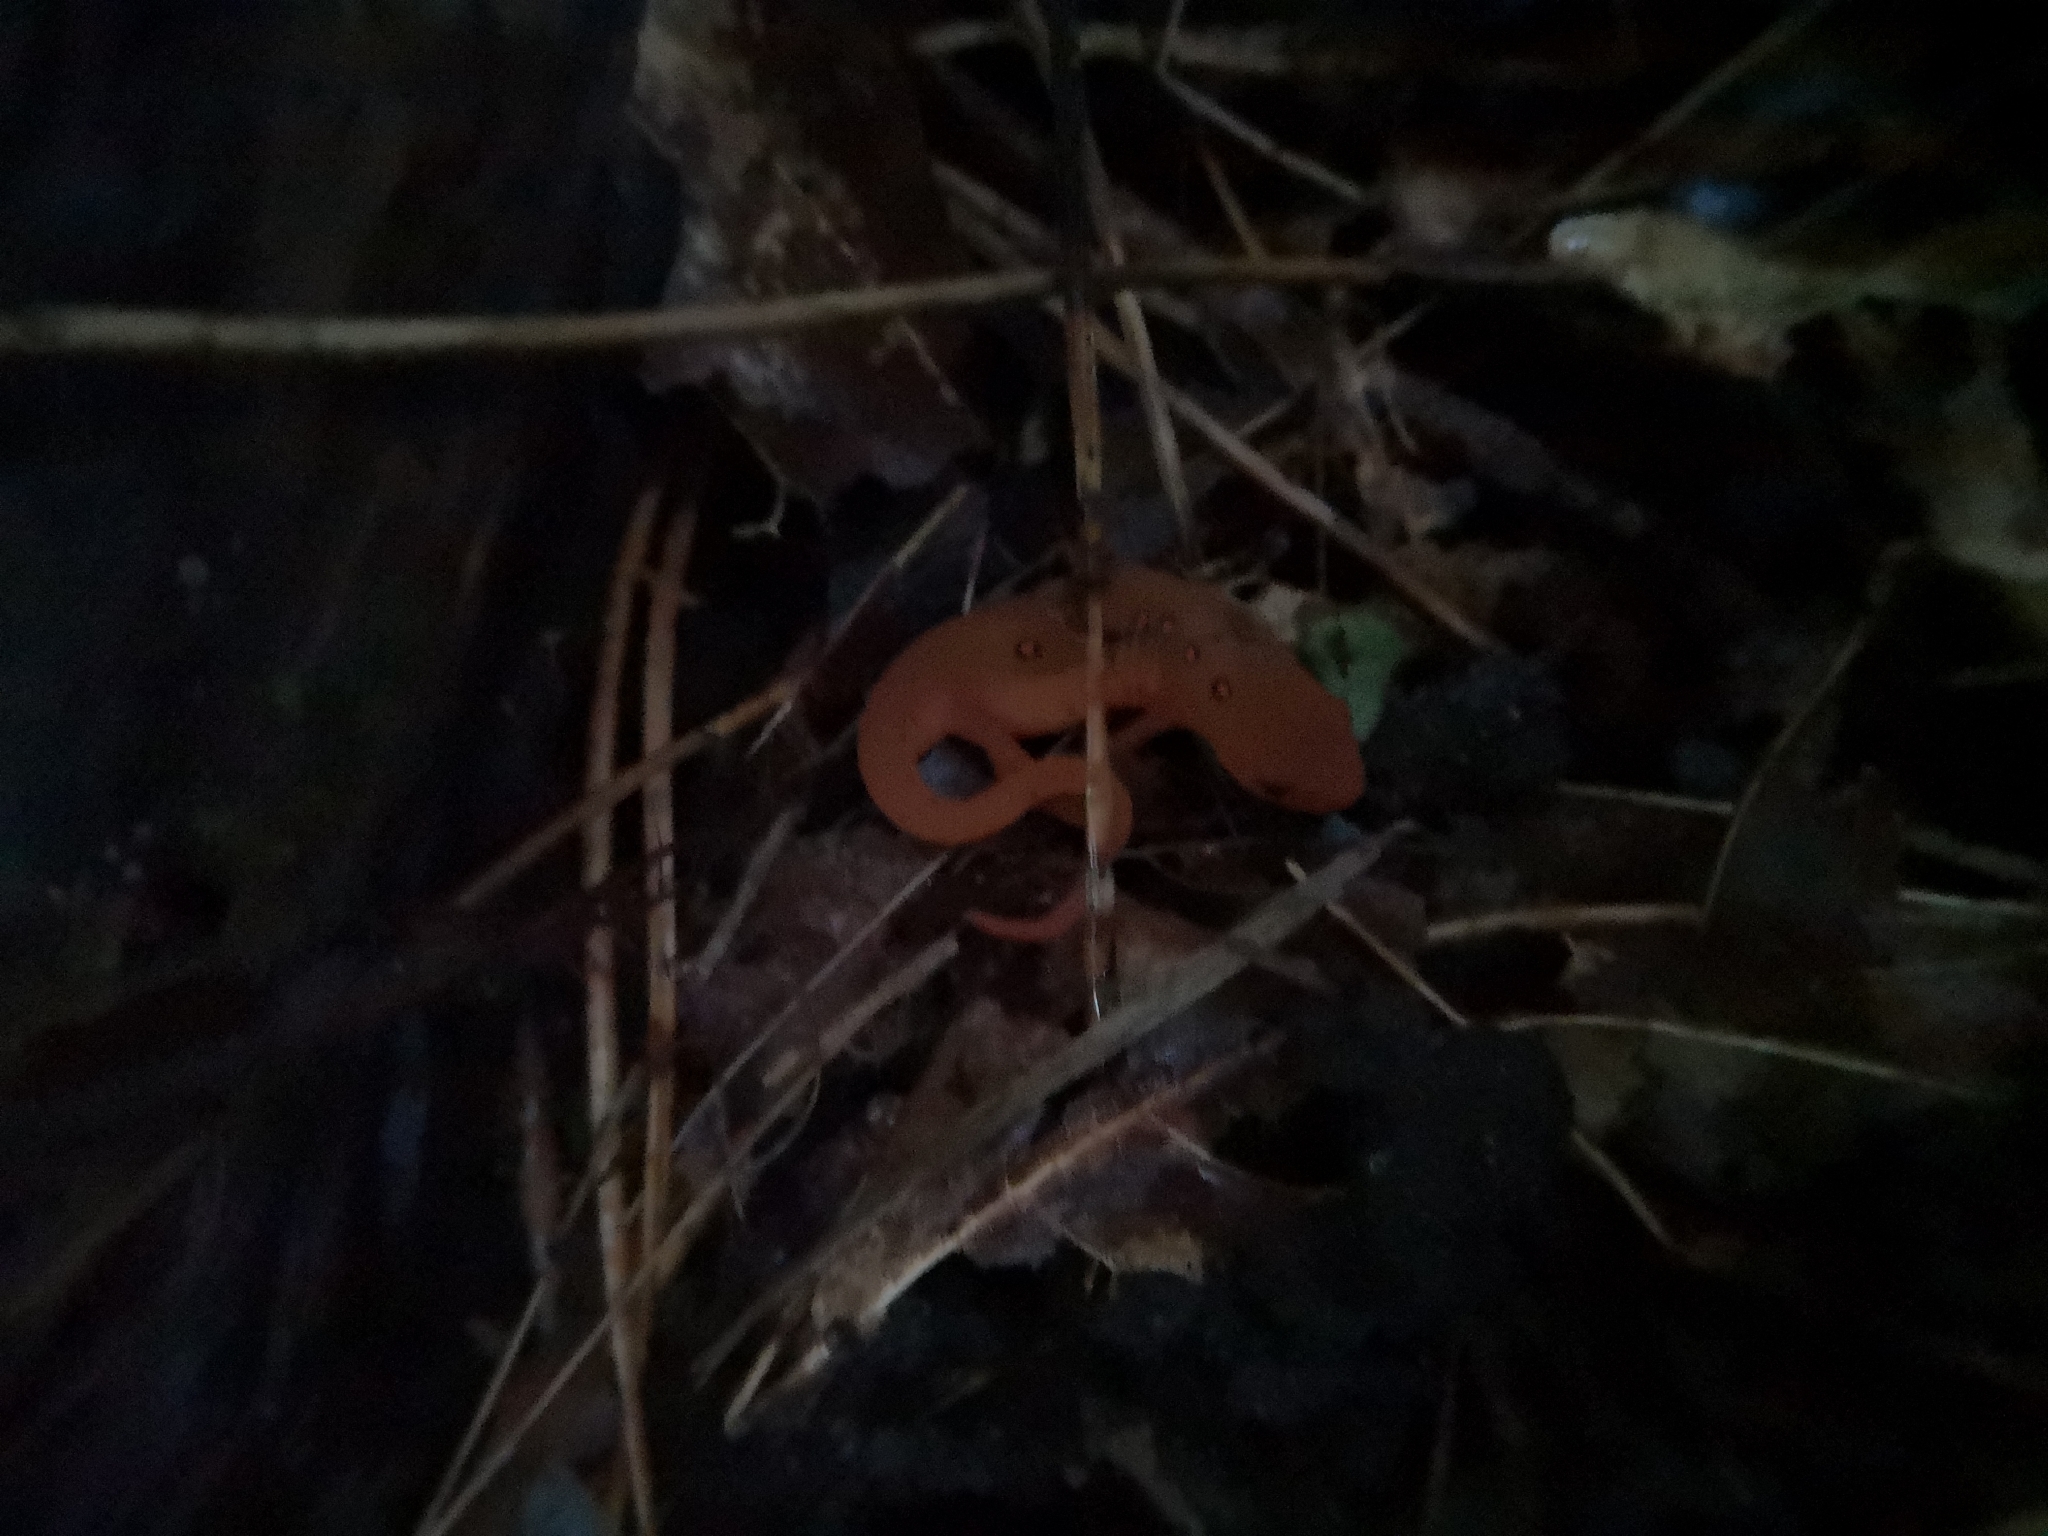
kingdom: Animalia
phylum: Chordata
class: Amphibia
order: Caudata
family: Salamandridae
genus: Notophthalmus
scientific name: Notophthalmus viridescens
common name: Eastern newt
